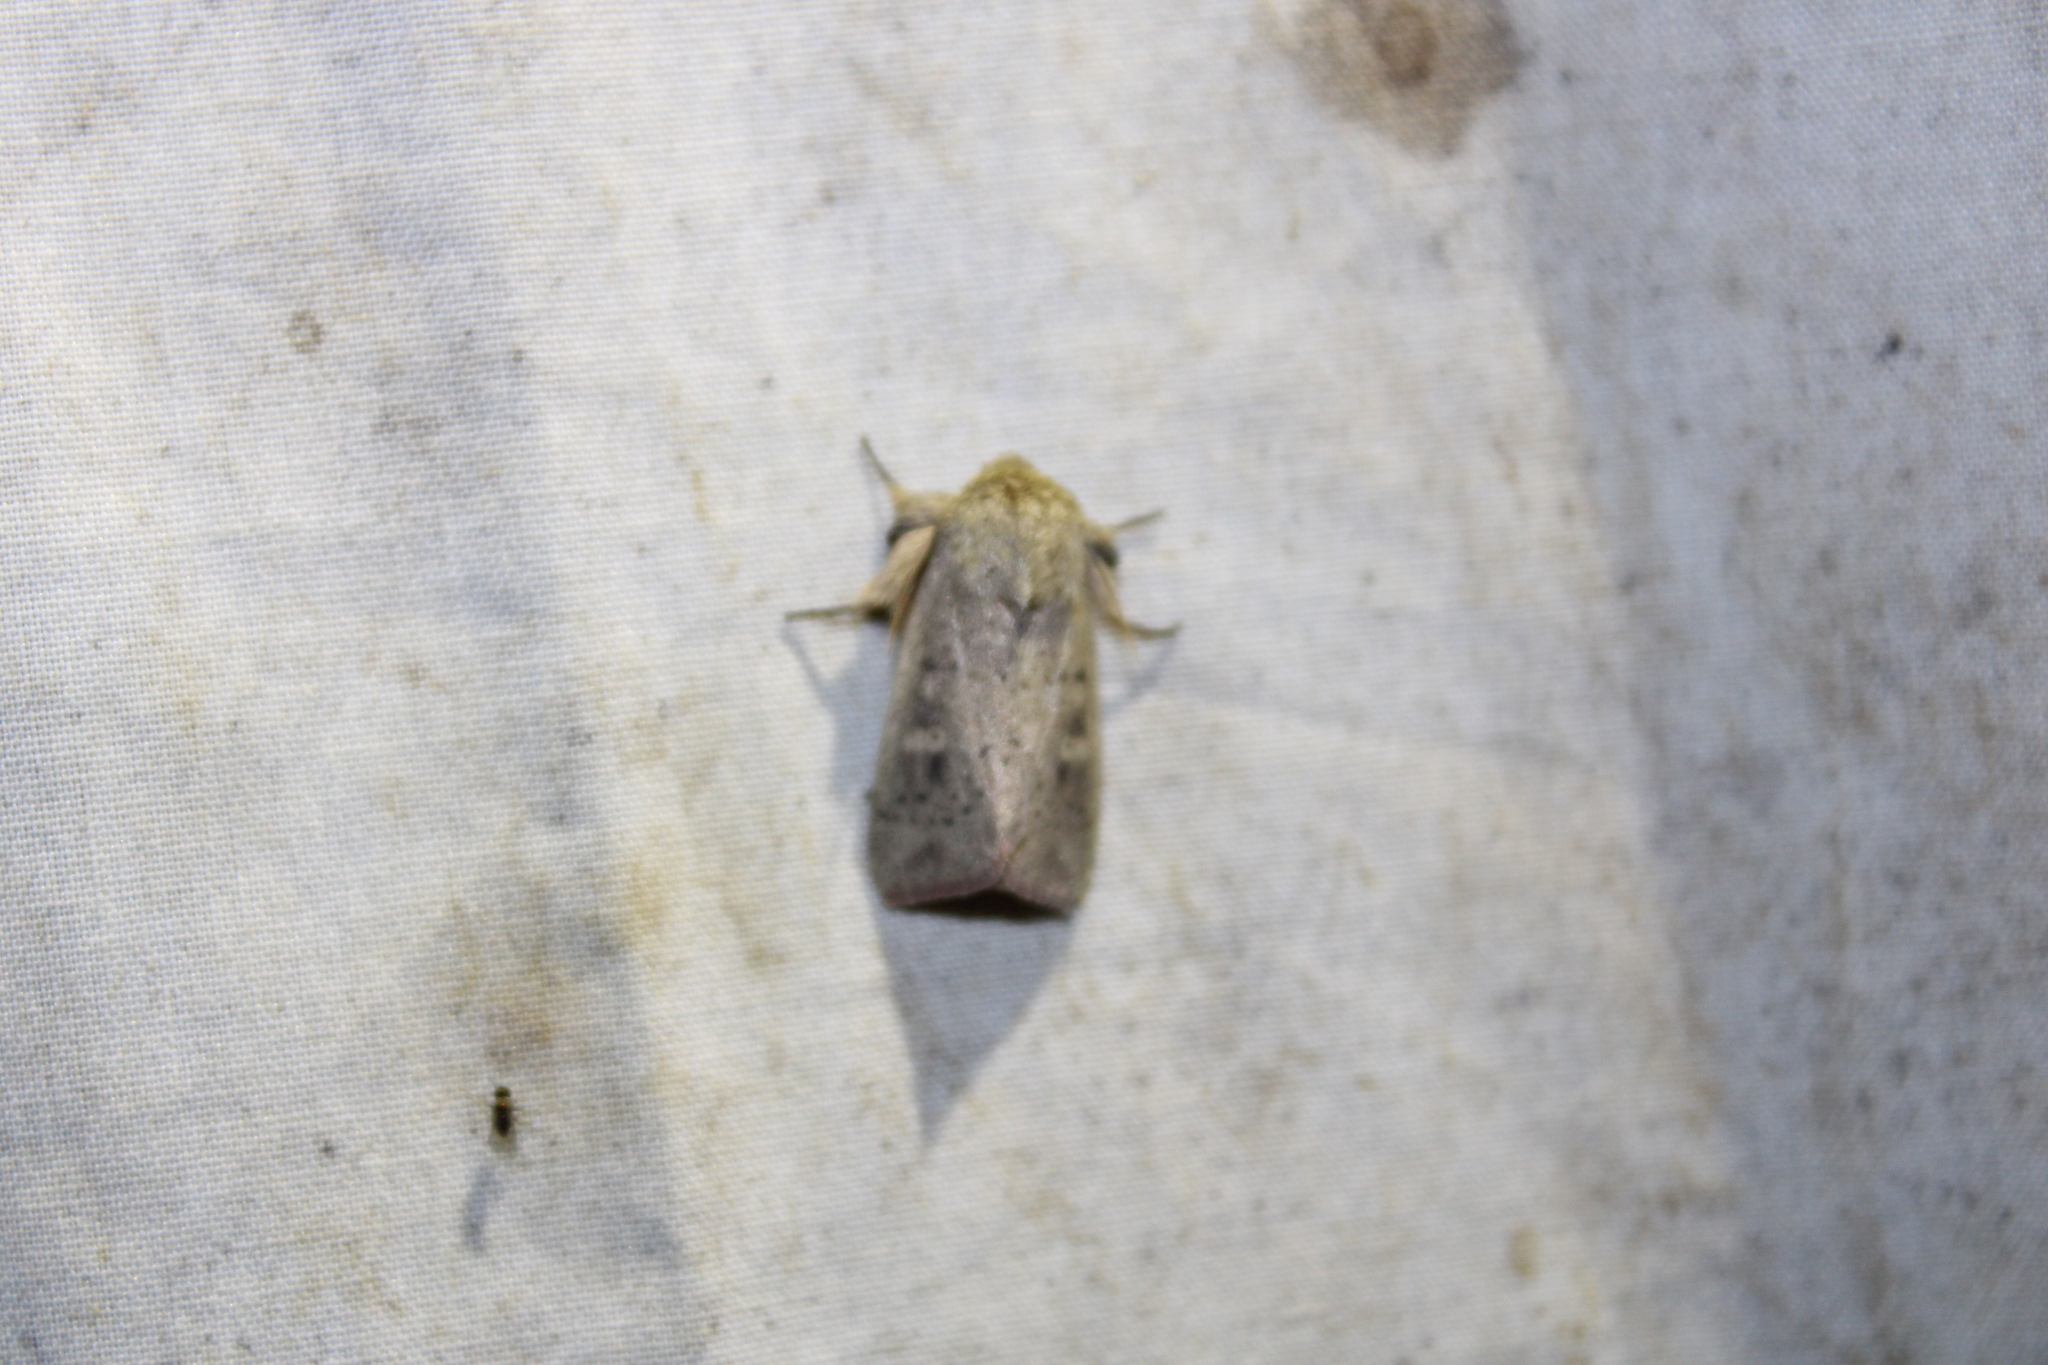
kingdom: Animalia
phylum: Arthropoda
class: Insecta
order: Lepidoptera
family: Noctuidae
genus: Leucania
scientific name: Leucania ursula
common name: Ursula wainscot
